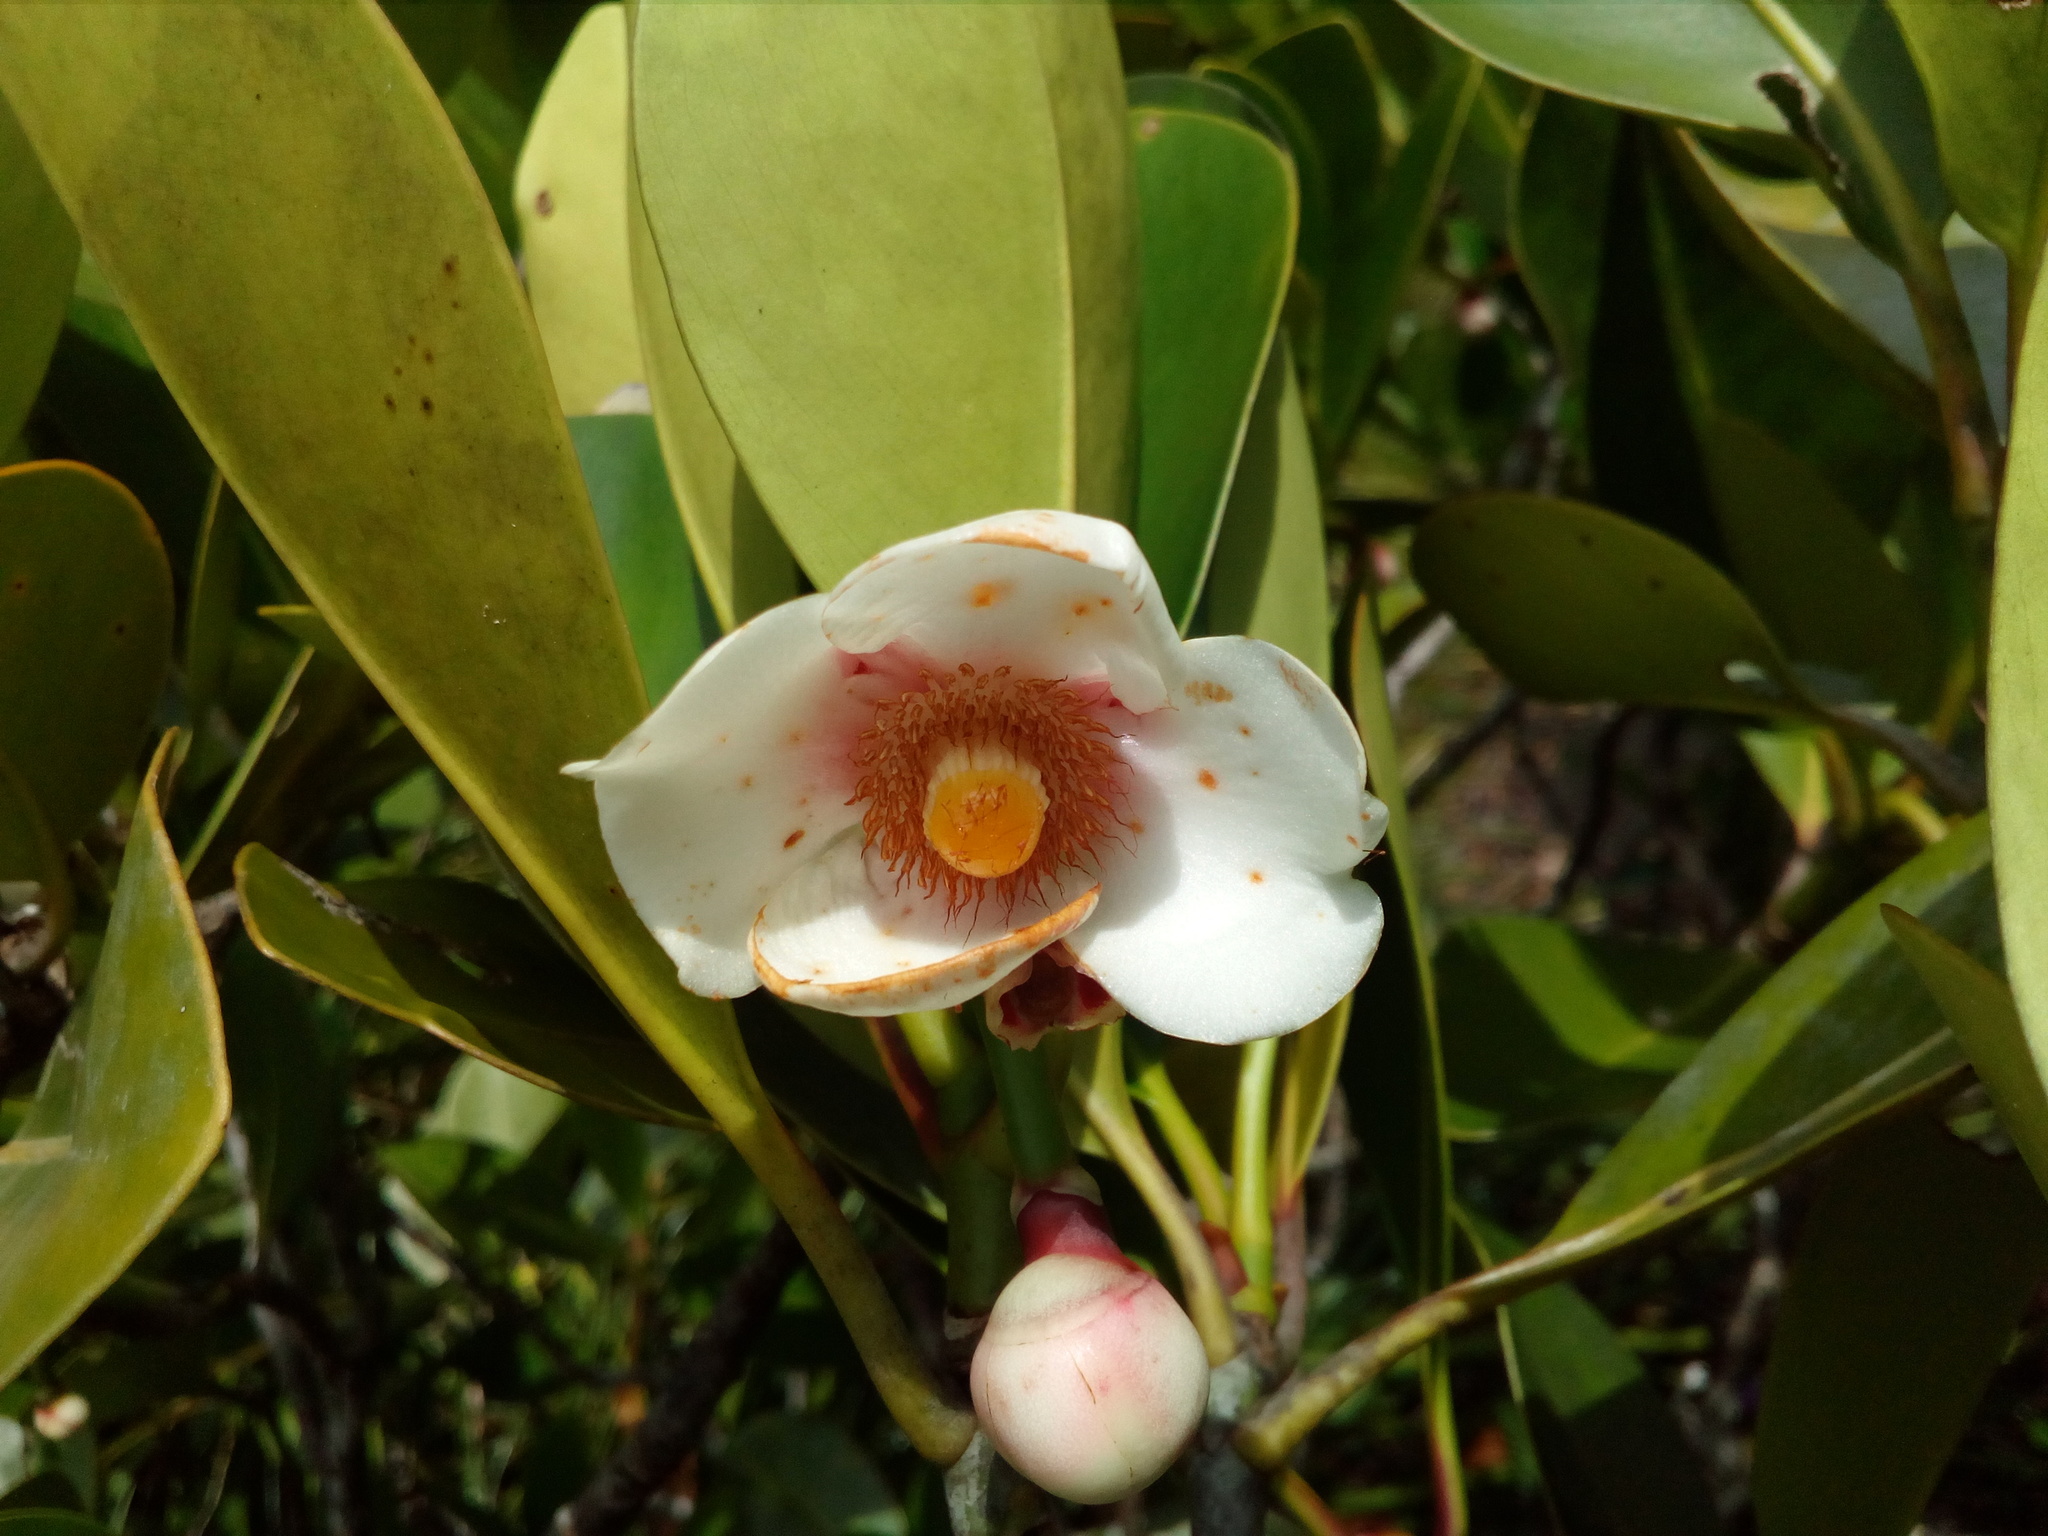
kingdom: Plantae
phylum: Tracheophyta
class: Magnoliopsida
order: Malpighiales
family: Clusiaceae
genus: Clusia
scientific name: Clusia nemorosa
